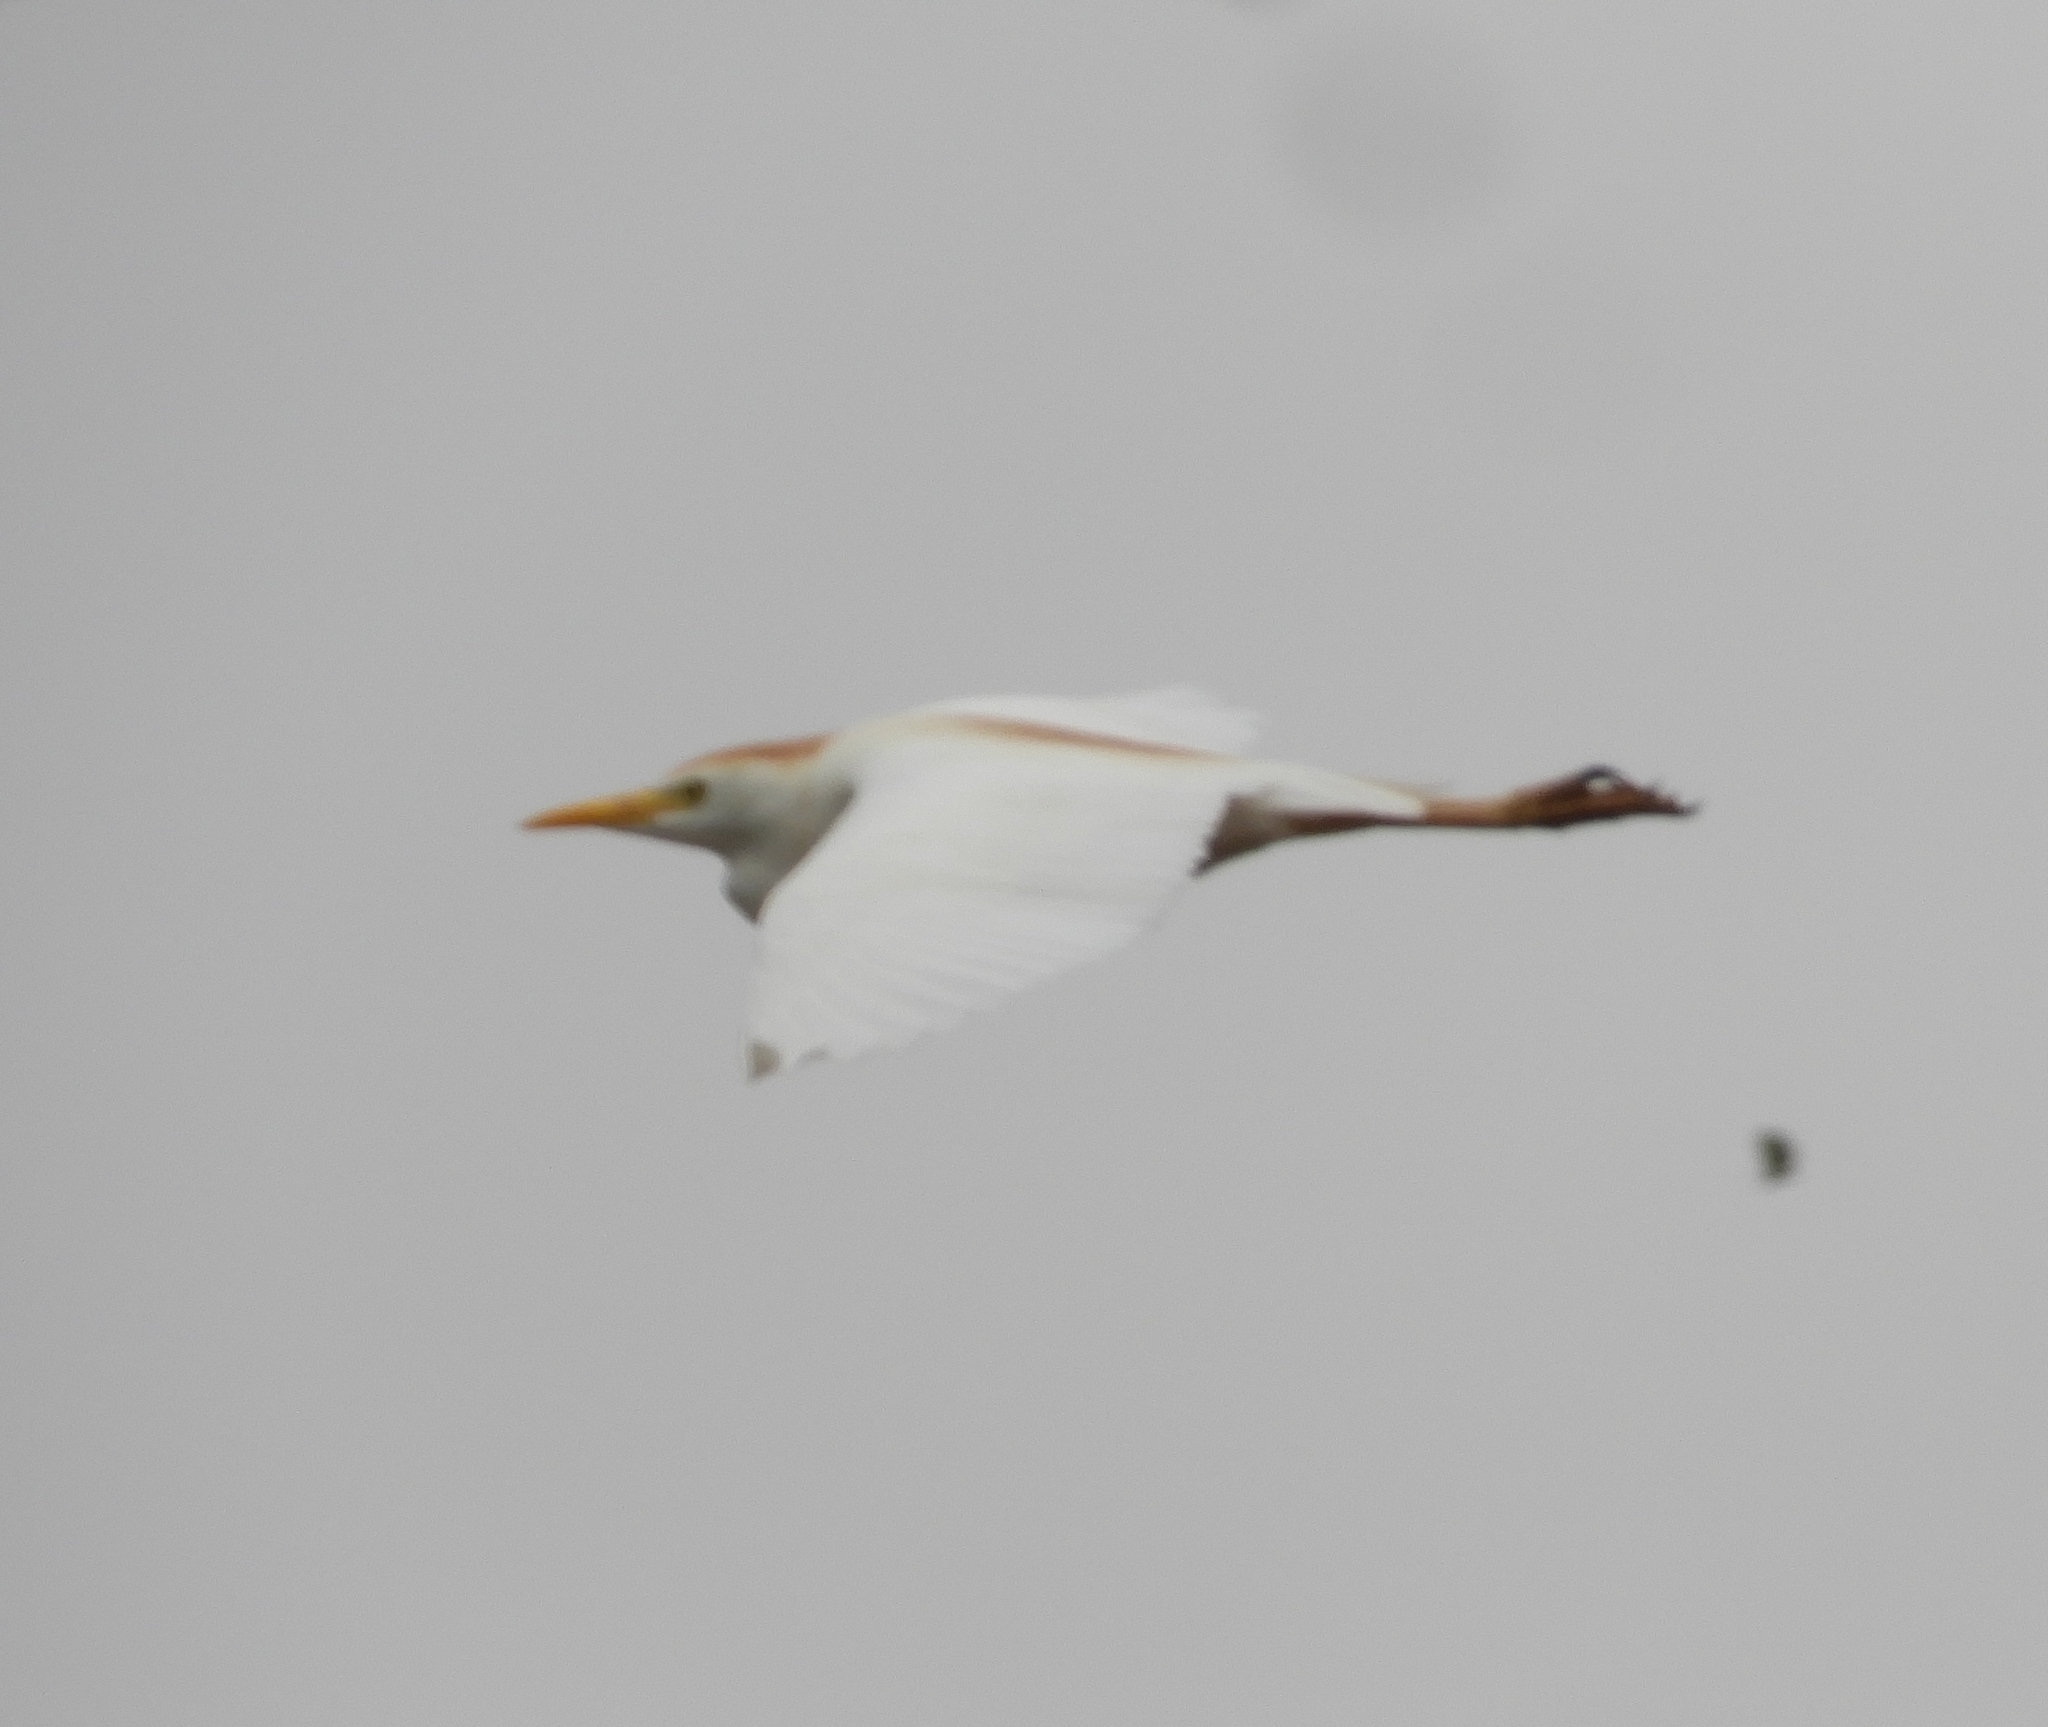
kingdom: Animalia
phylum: Chordata
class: Aves
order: Pelecaniformes
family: Ardeidae
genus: Bubulcus
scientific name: Bubulcus ibis
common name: Cattle egret
